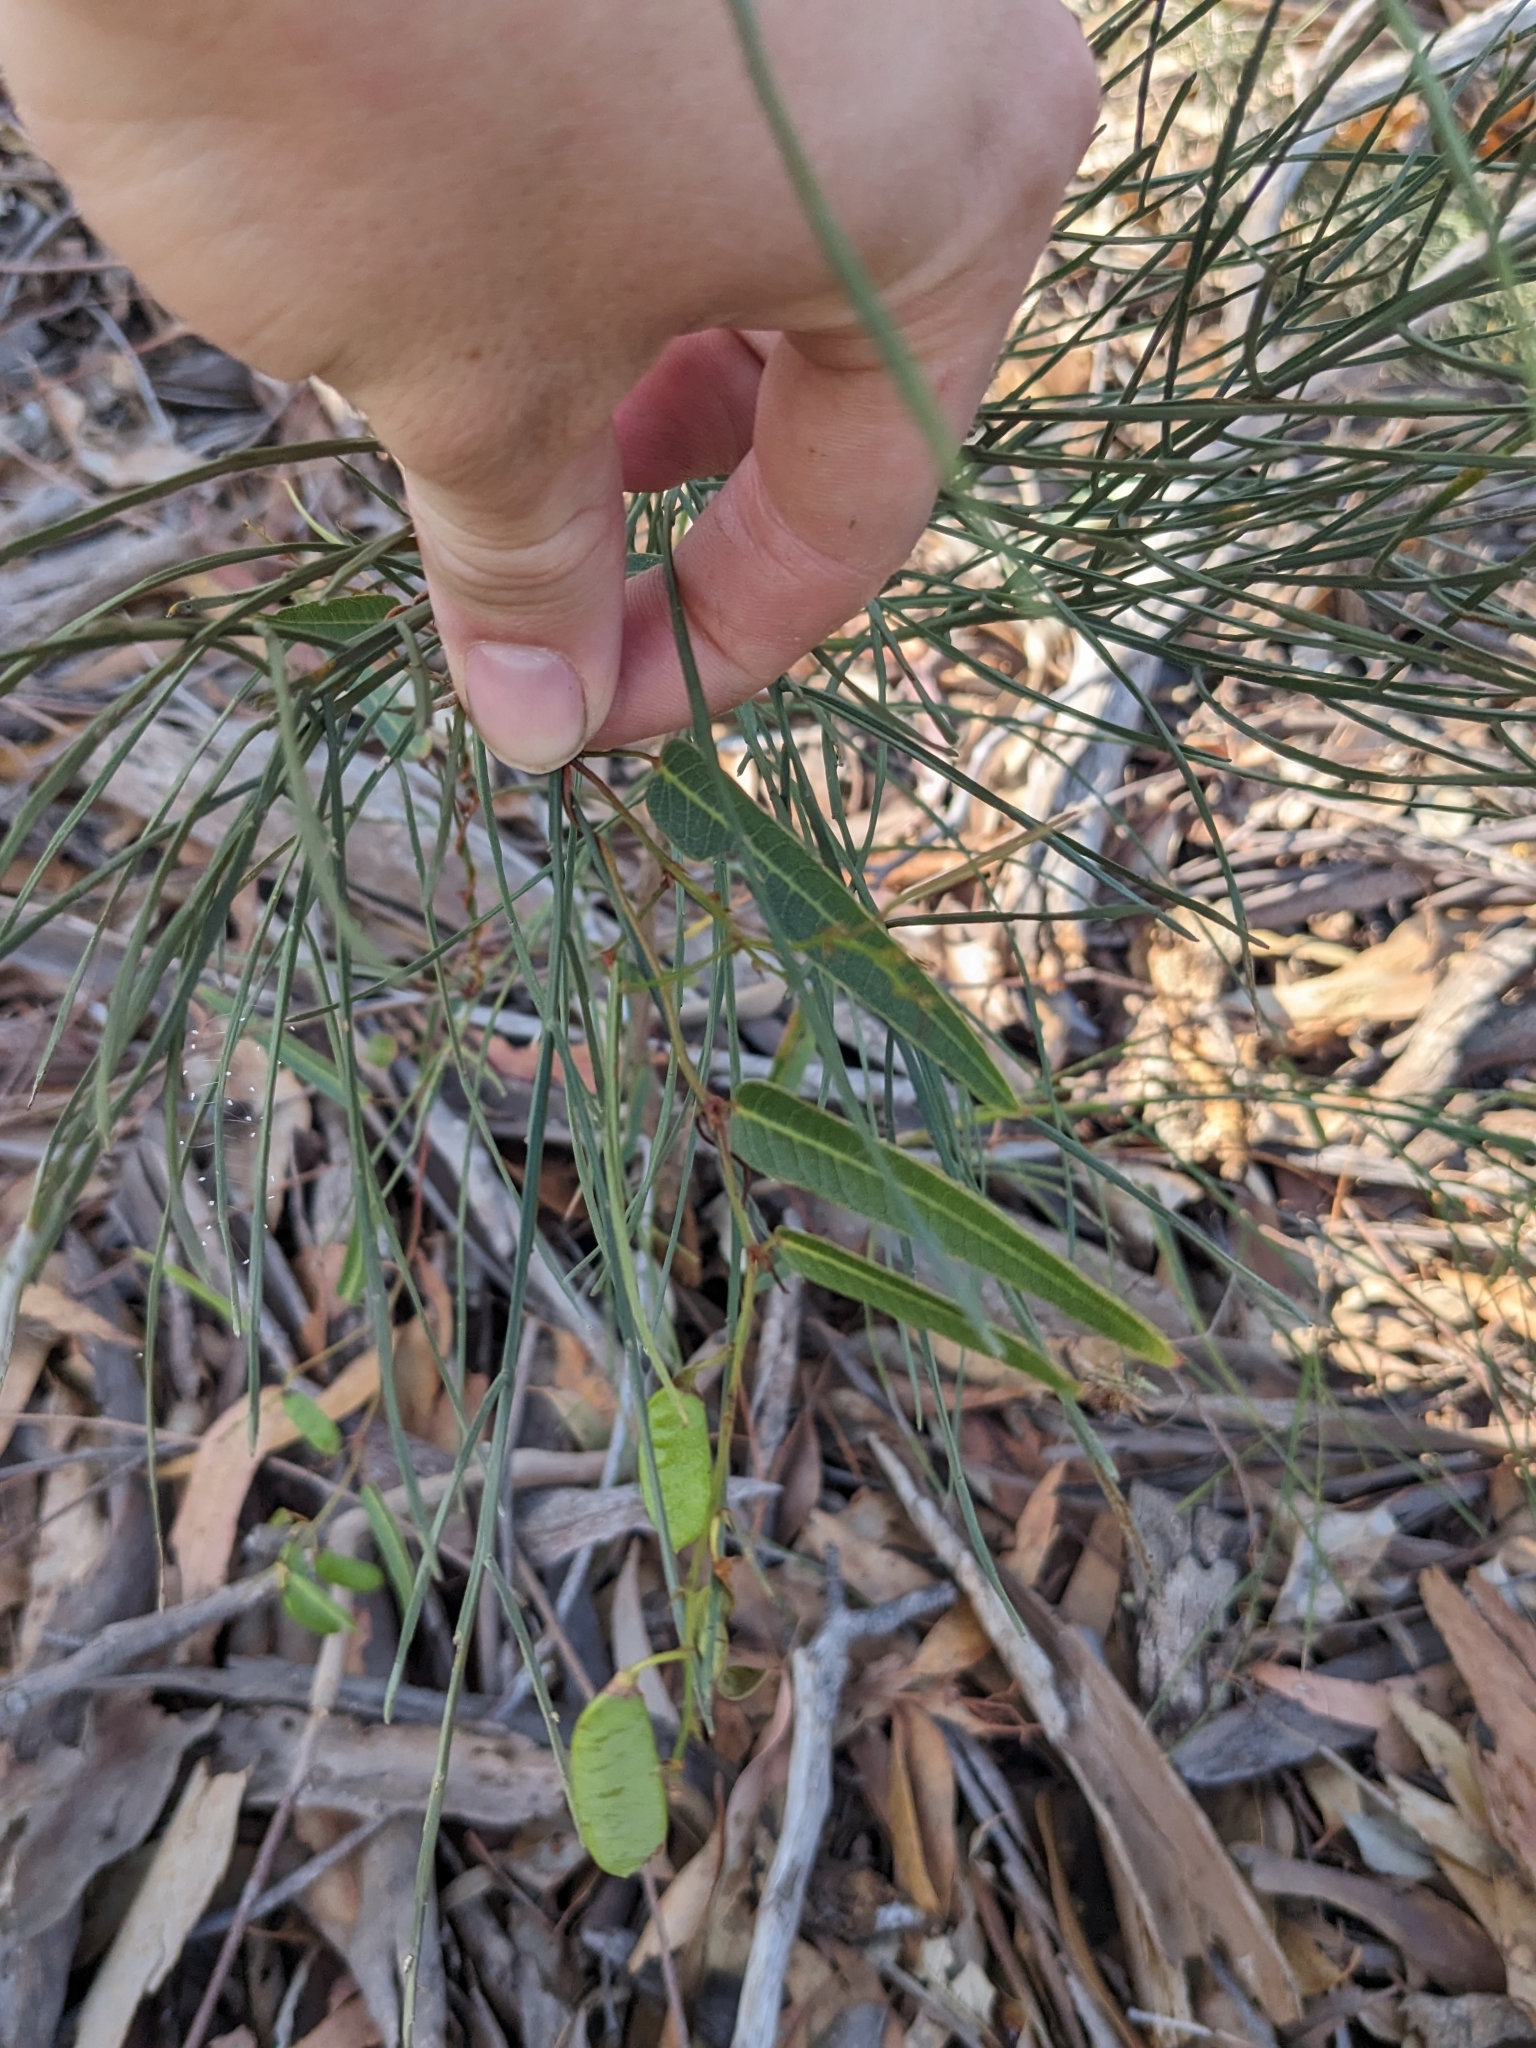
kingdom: Plantae
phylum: Tracheophyta
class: Magnoliopsida
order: Fabales
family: Fabaceae
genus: Hardenbergia
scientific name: Hardenbergia violacea
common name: Coral-pea
